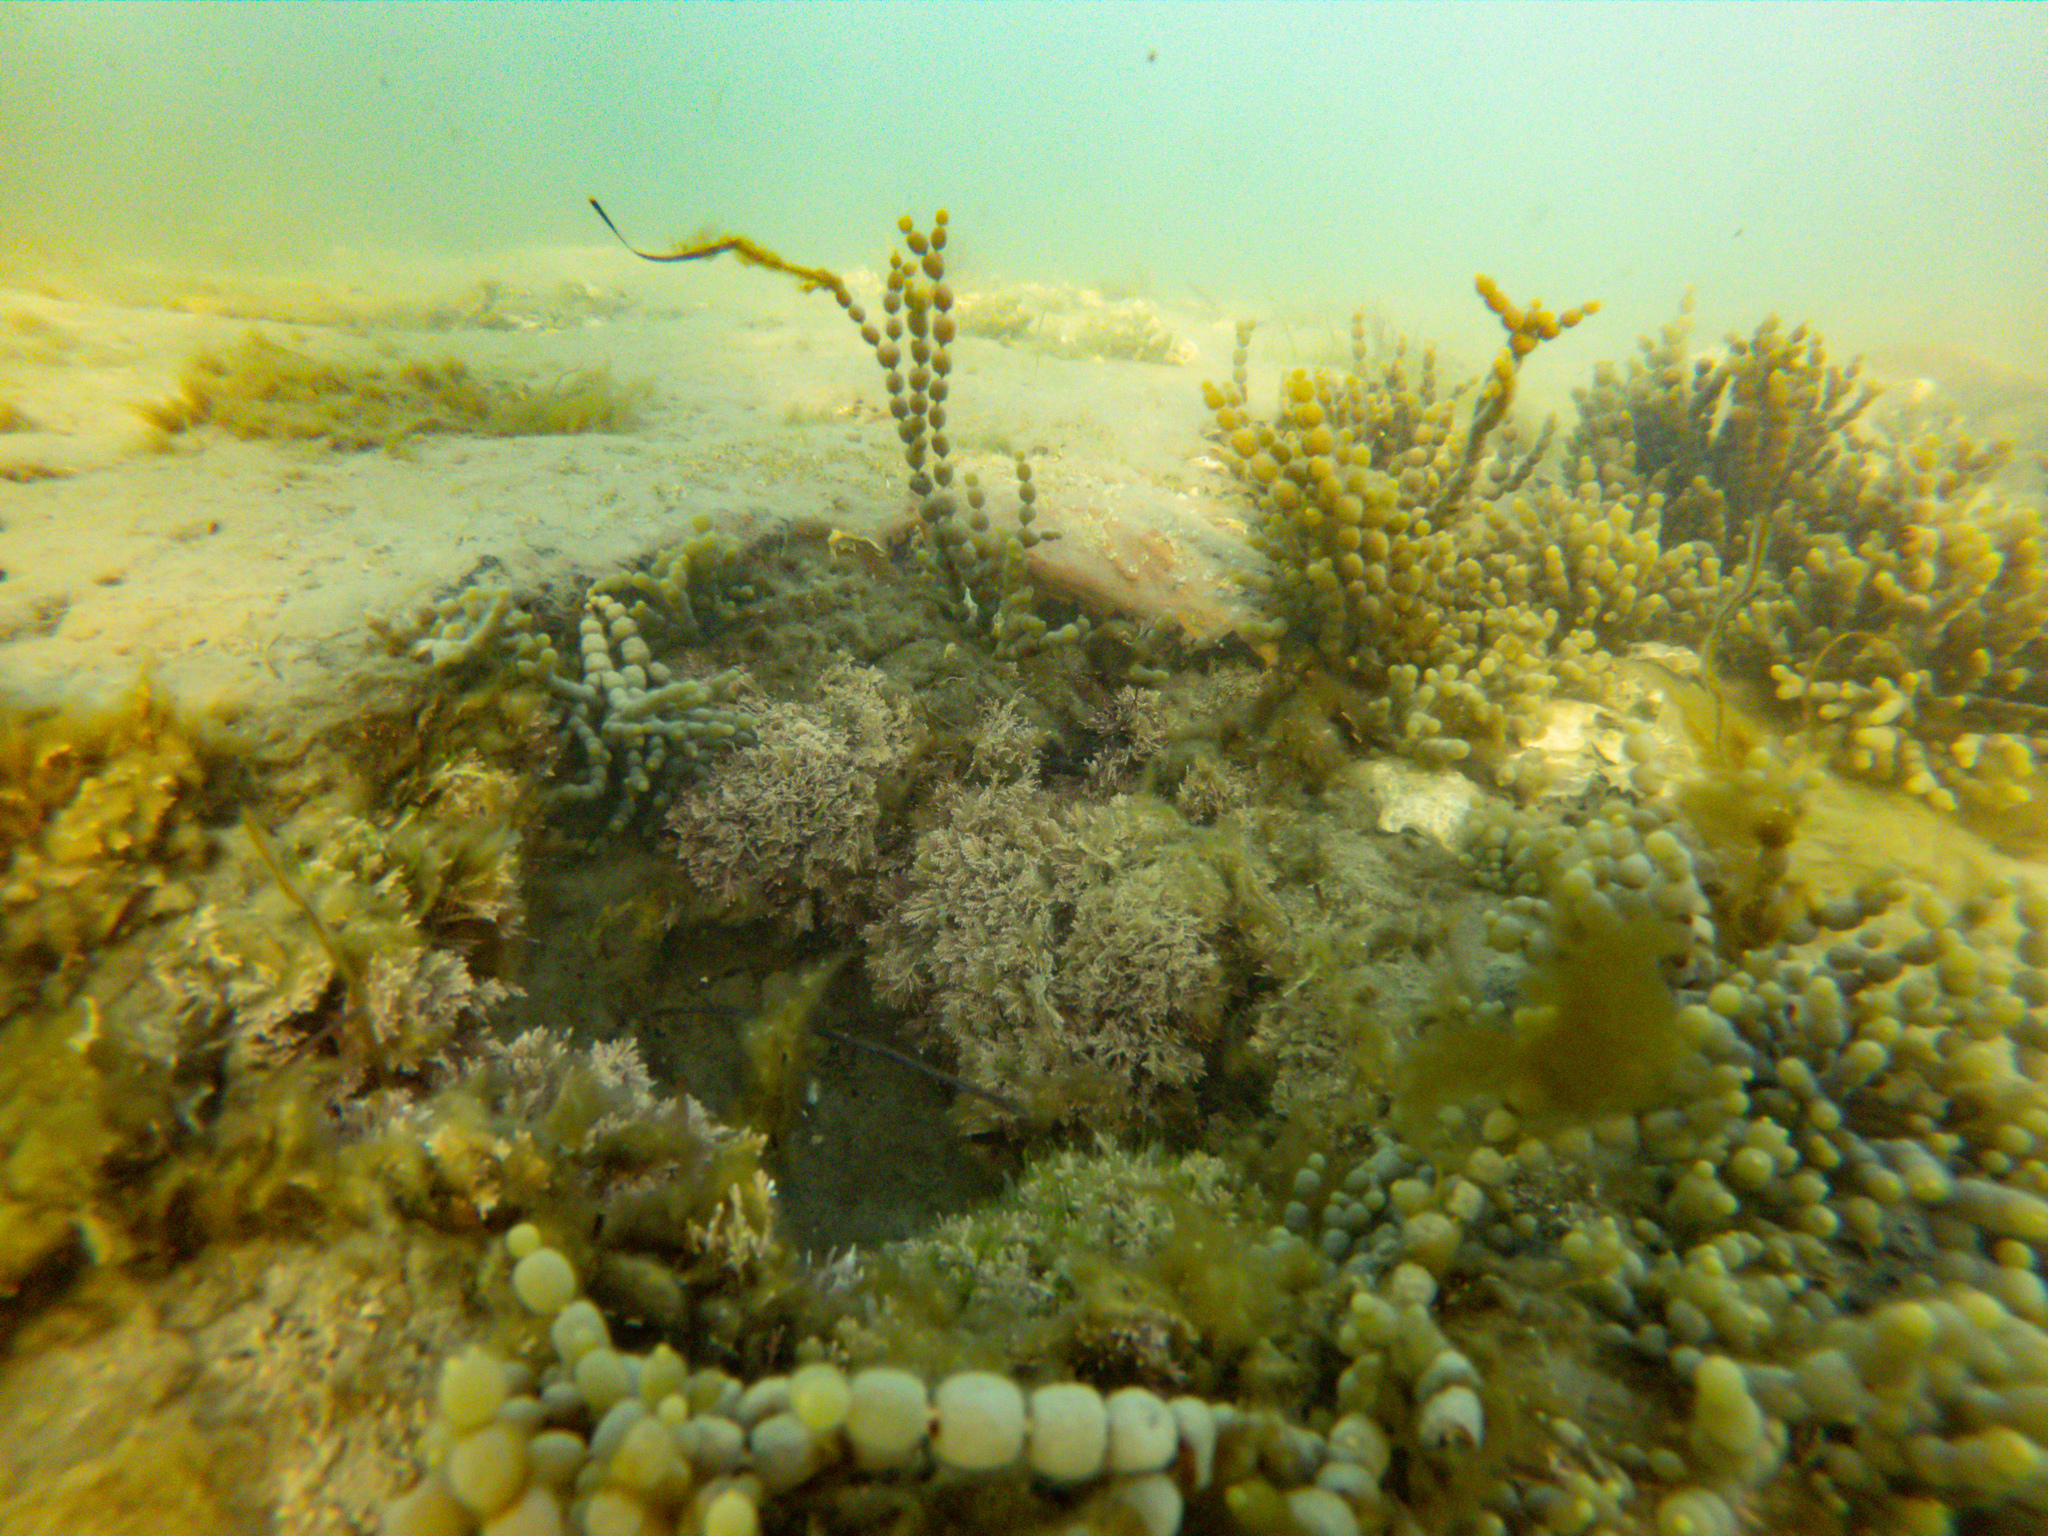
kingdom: Chromista
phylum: Ochrophyta
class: Phaeophyceae
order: Fucales
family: Hormosiraceae
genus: Hormosira
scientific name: Hormosira banksii
